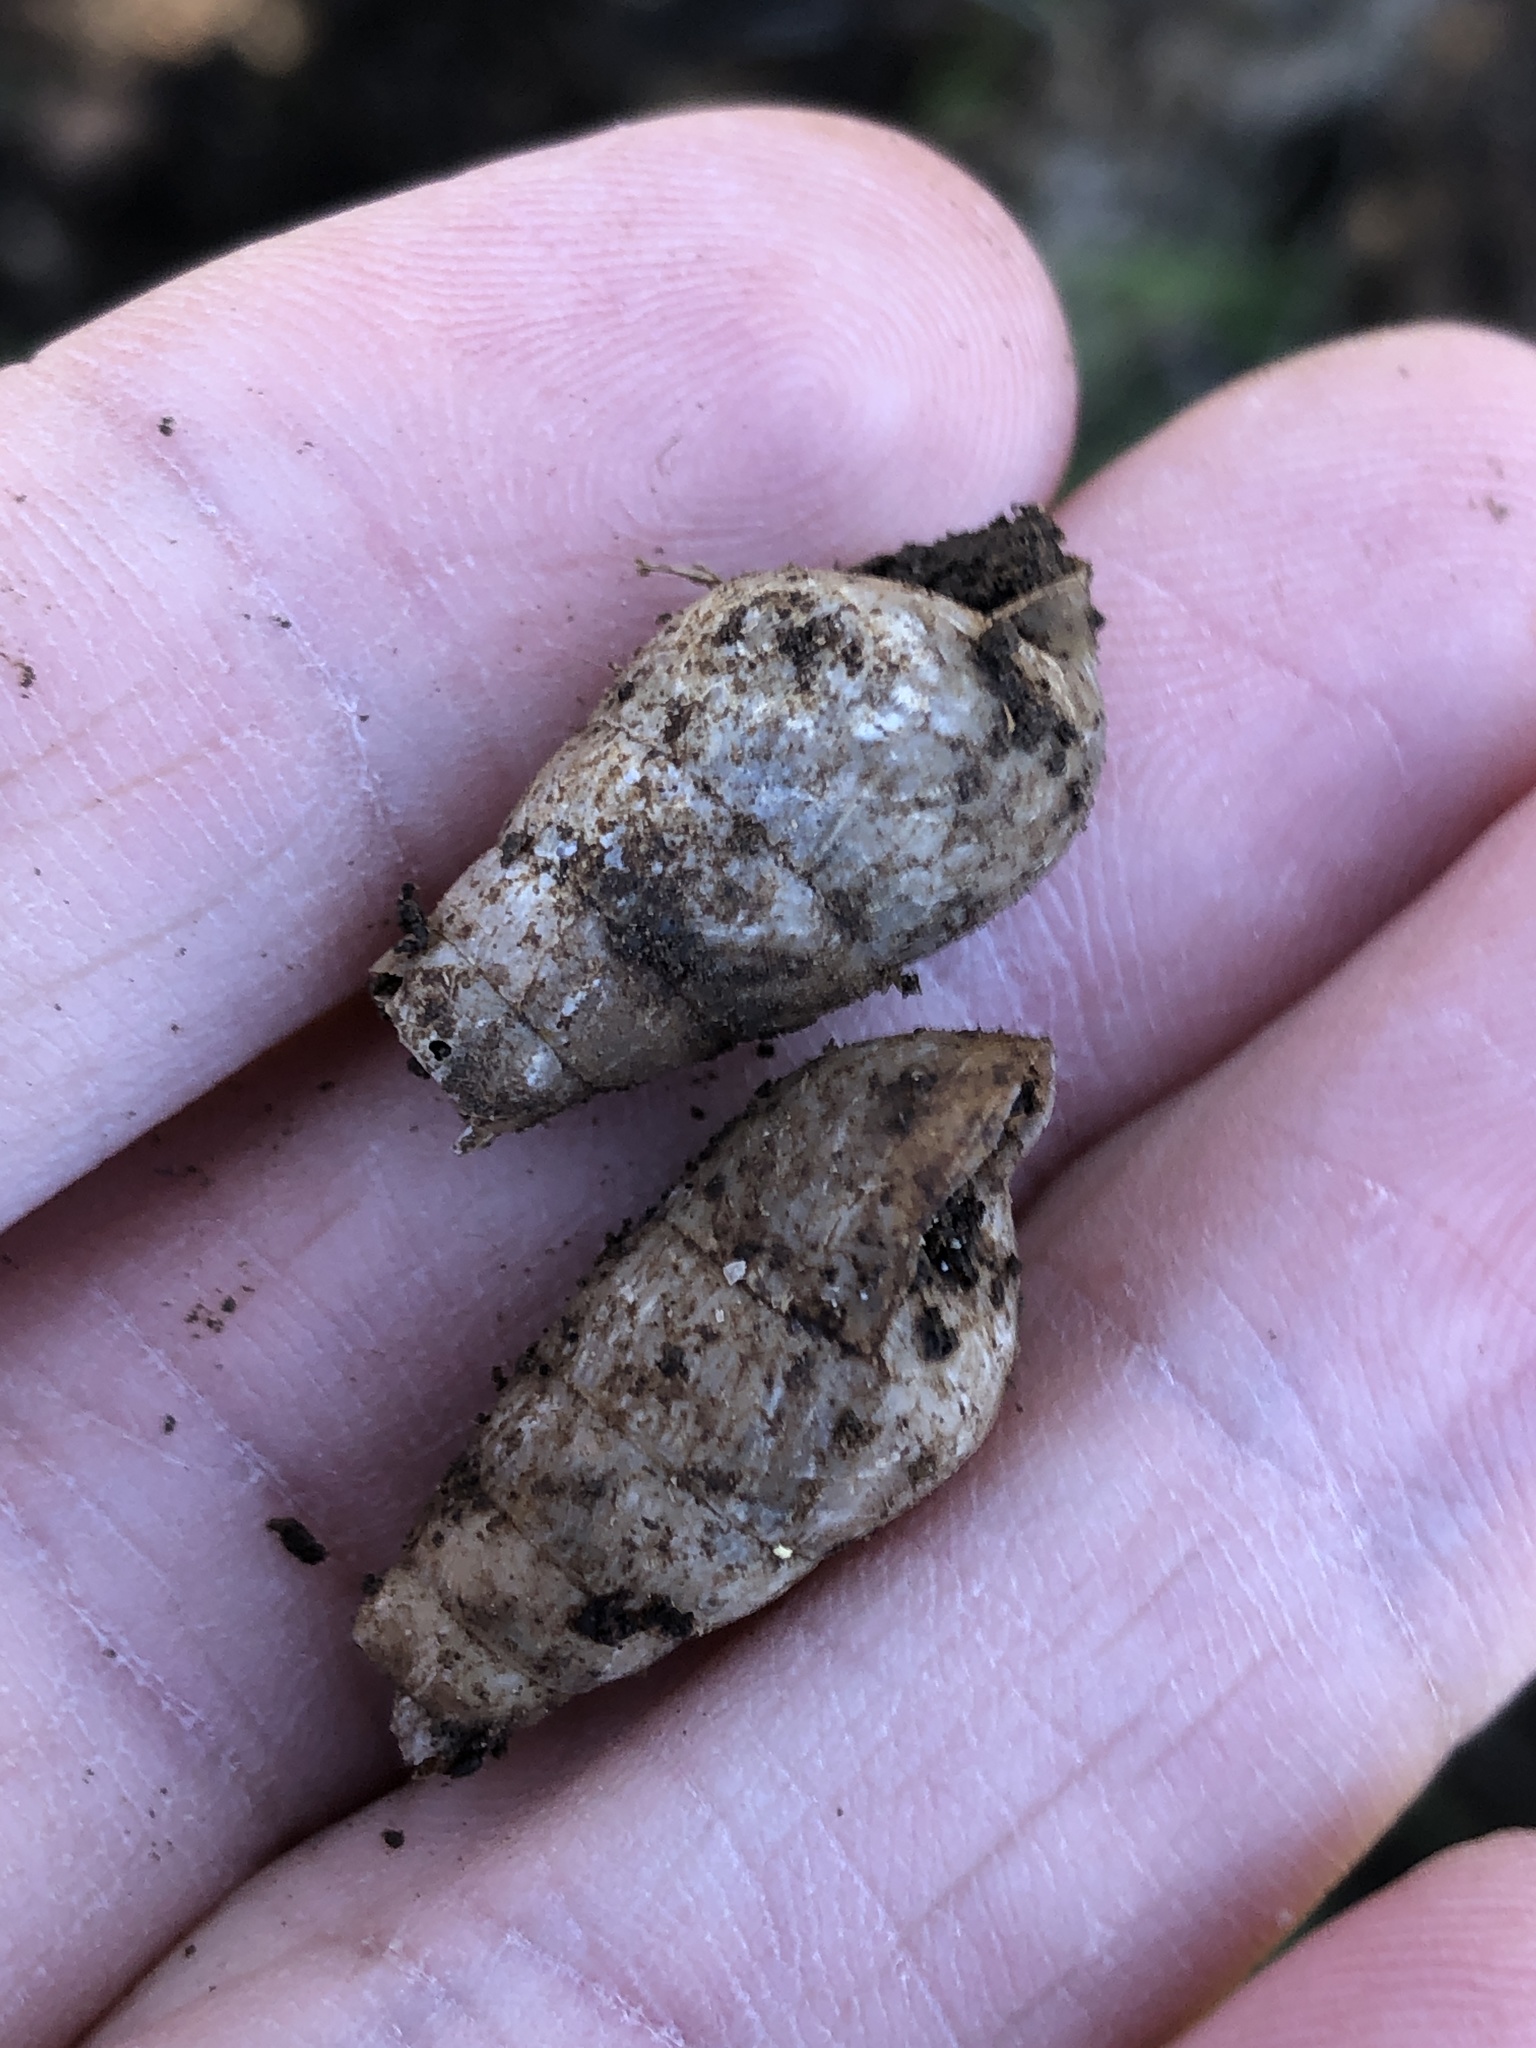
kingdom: Animalia
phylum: Mollusca
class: Gastropoda
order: Stylommatophora
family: Achatinidae
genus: Rumina
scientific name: Rumina decollata
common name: Decollate snail
